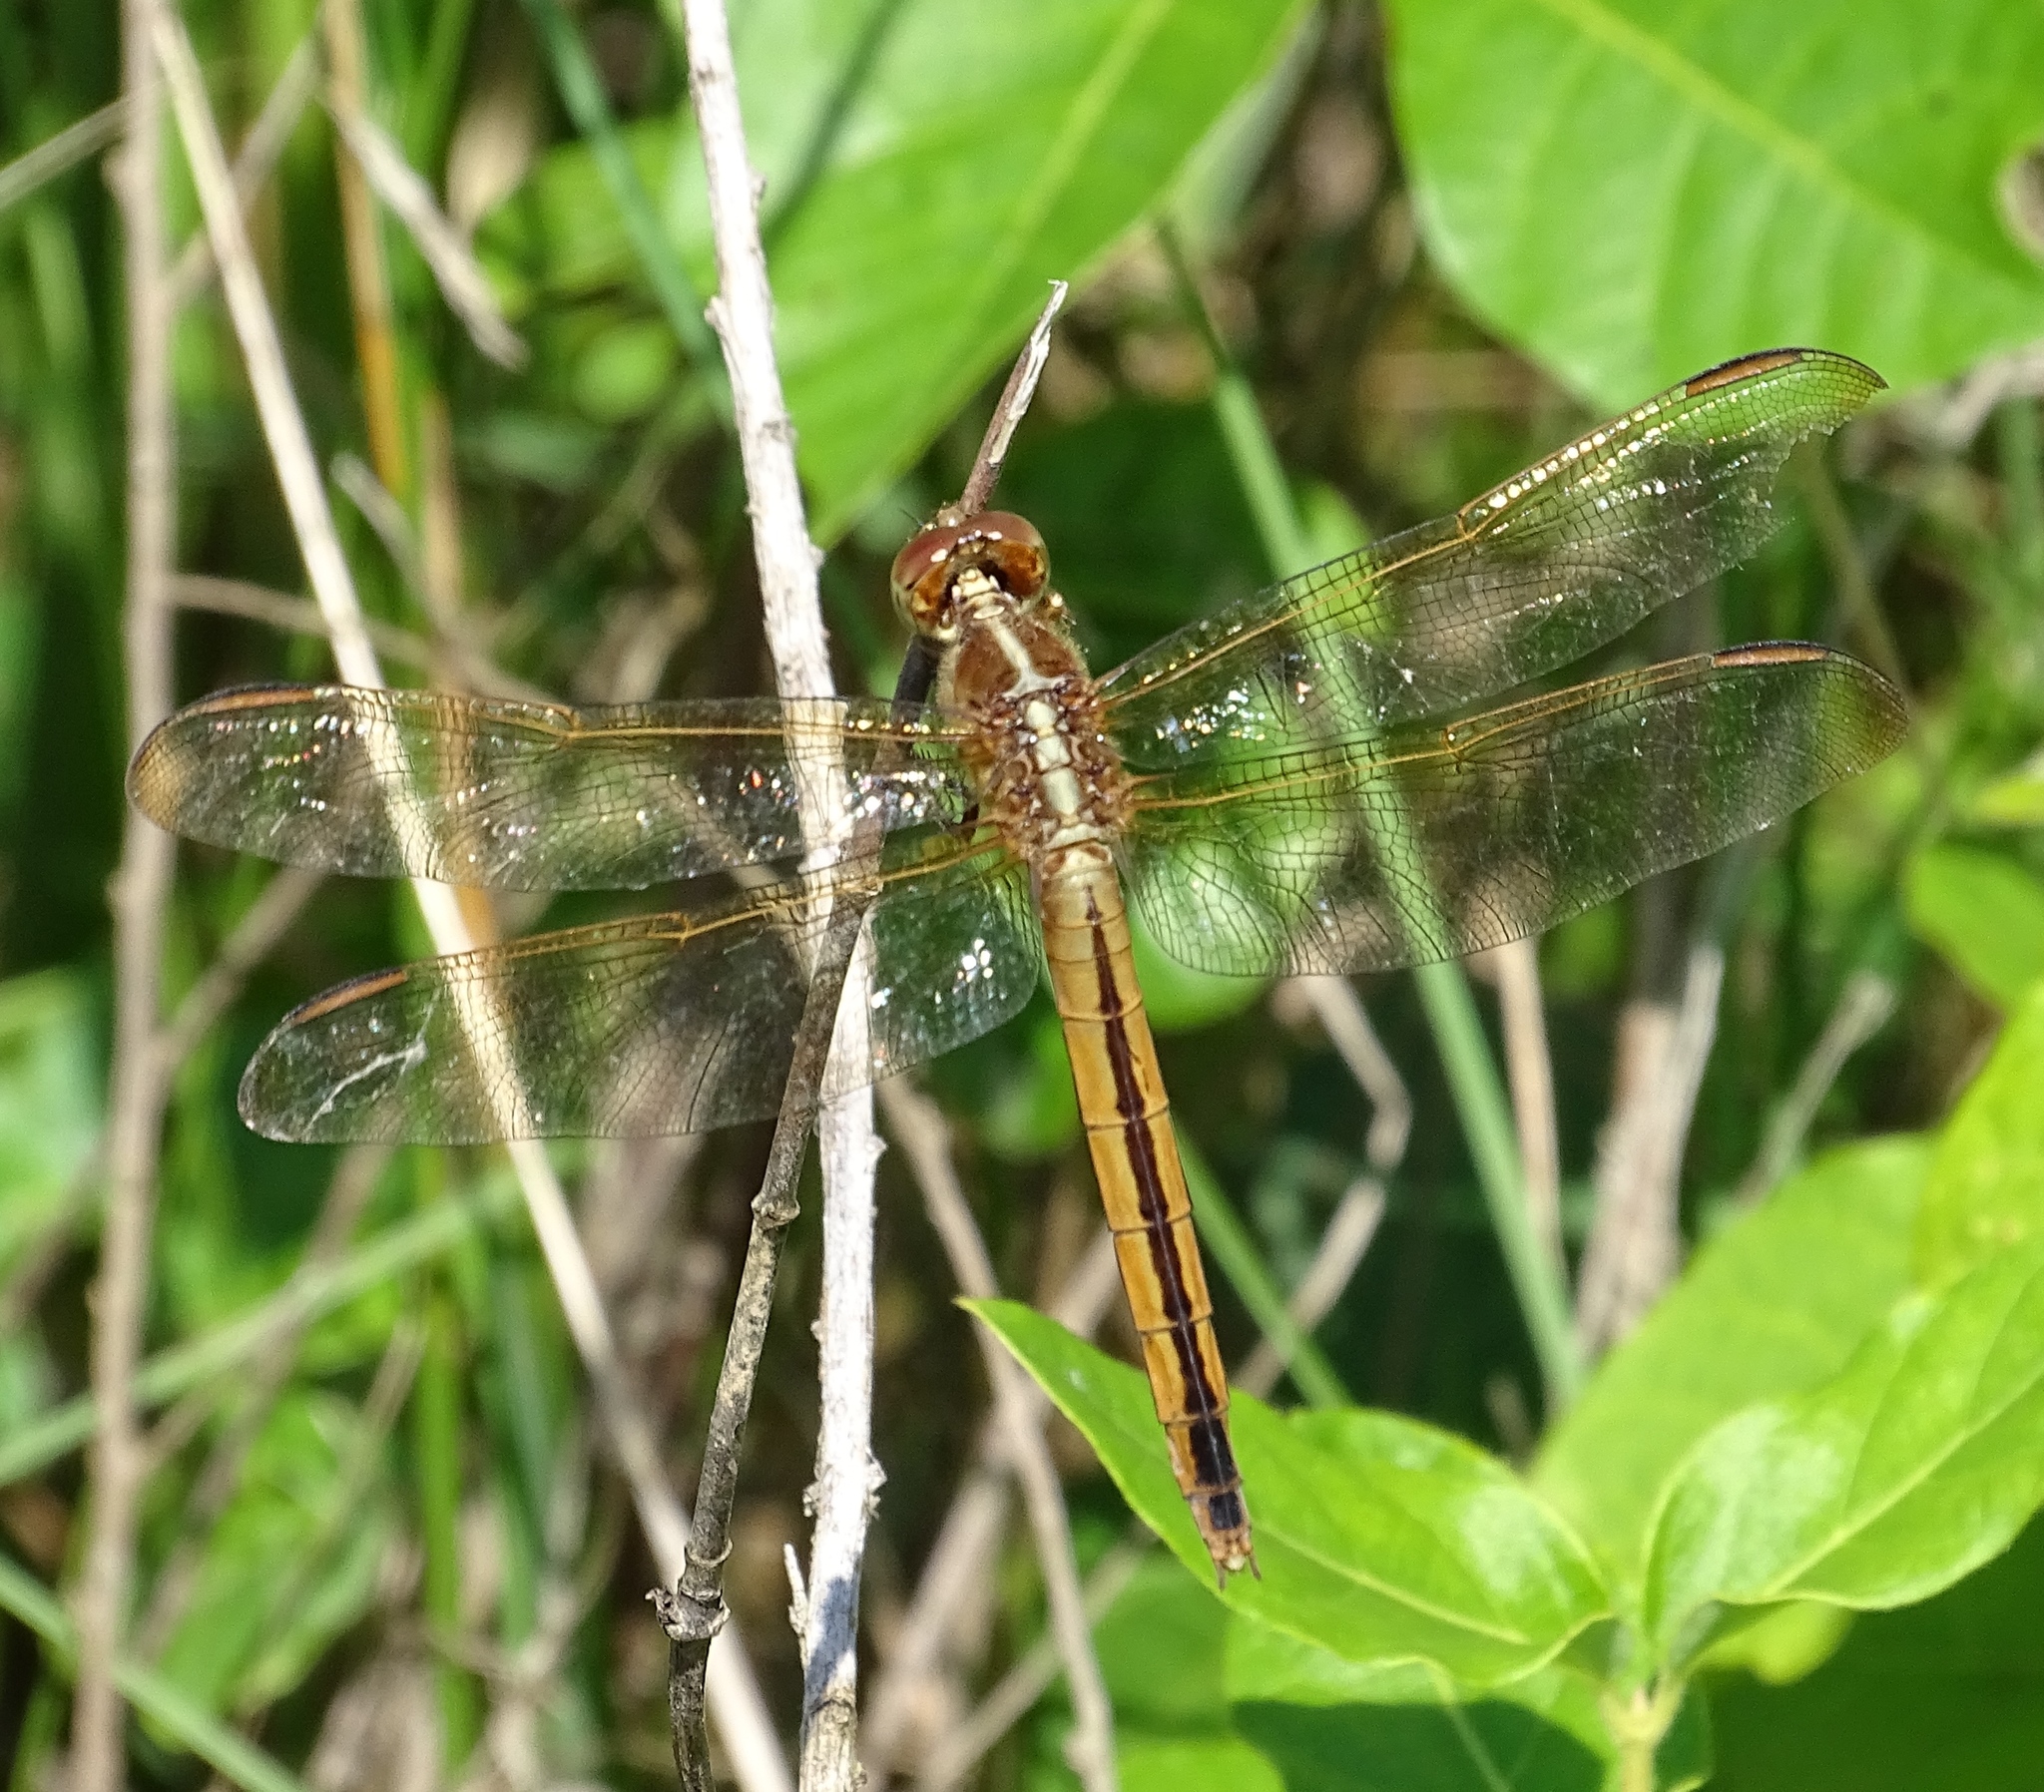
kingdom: Animalia
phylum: Arthropoda
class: Insecta
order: Odonata
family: Libellulidae
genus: Libellula
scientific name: Libellula needhami
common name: Needham's skimmer
